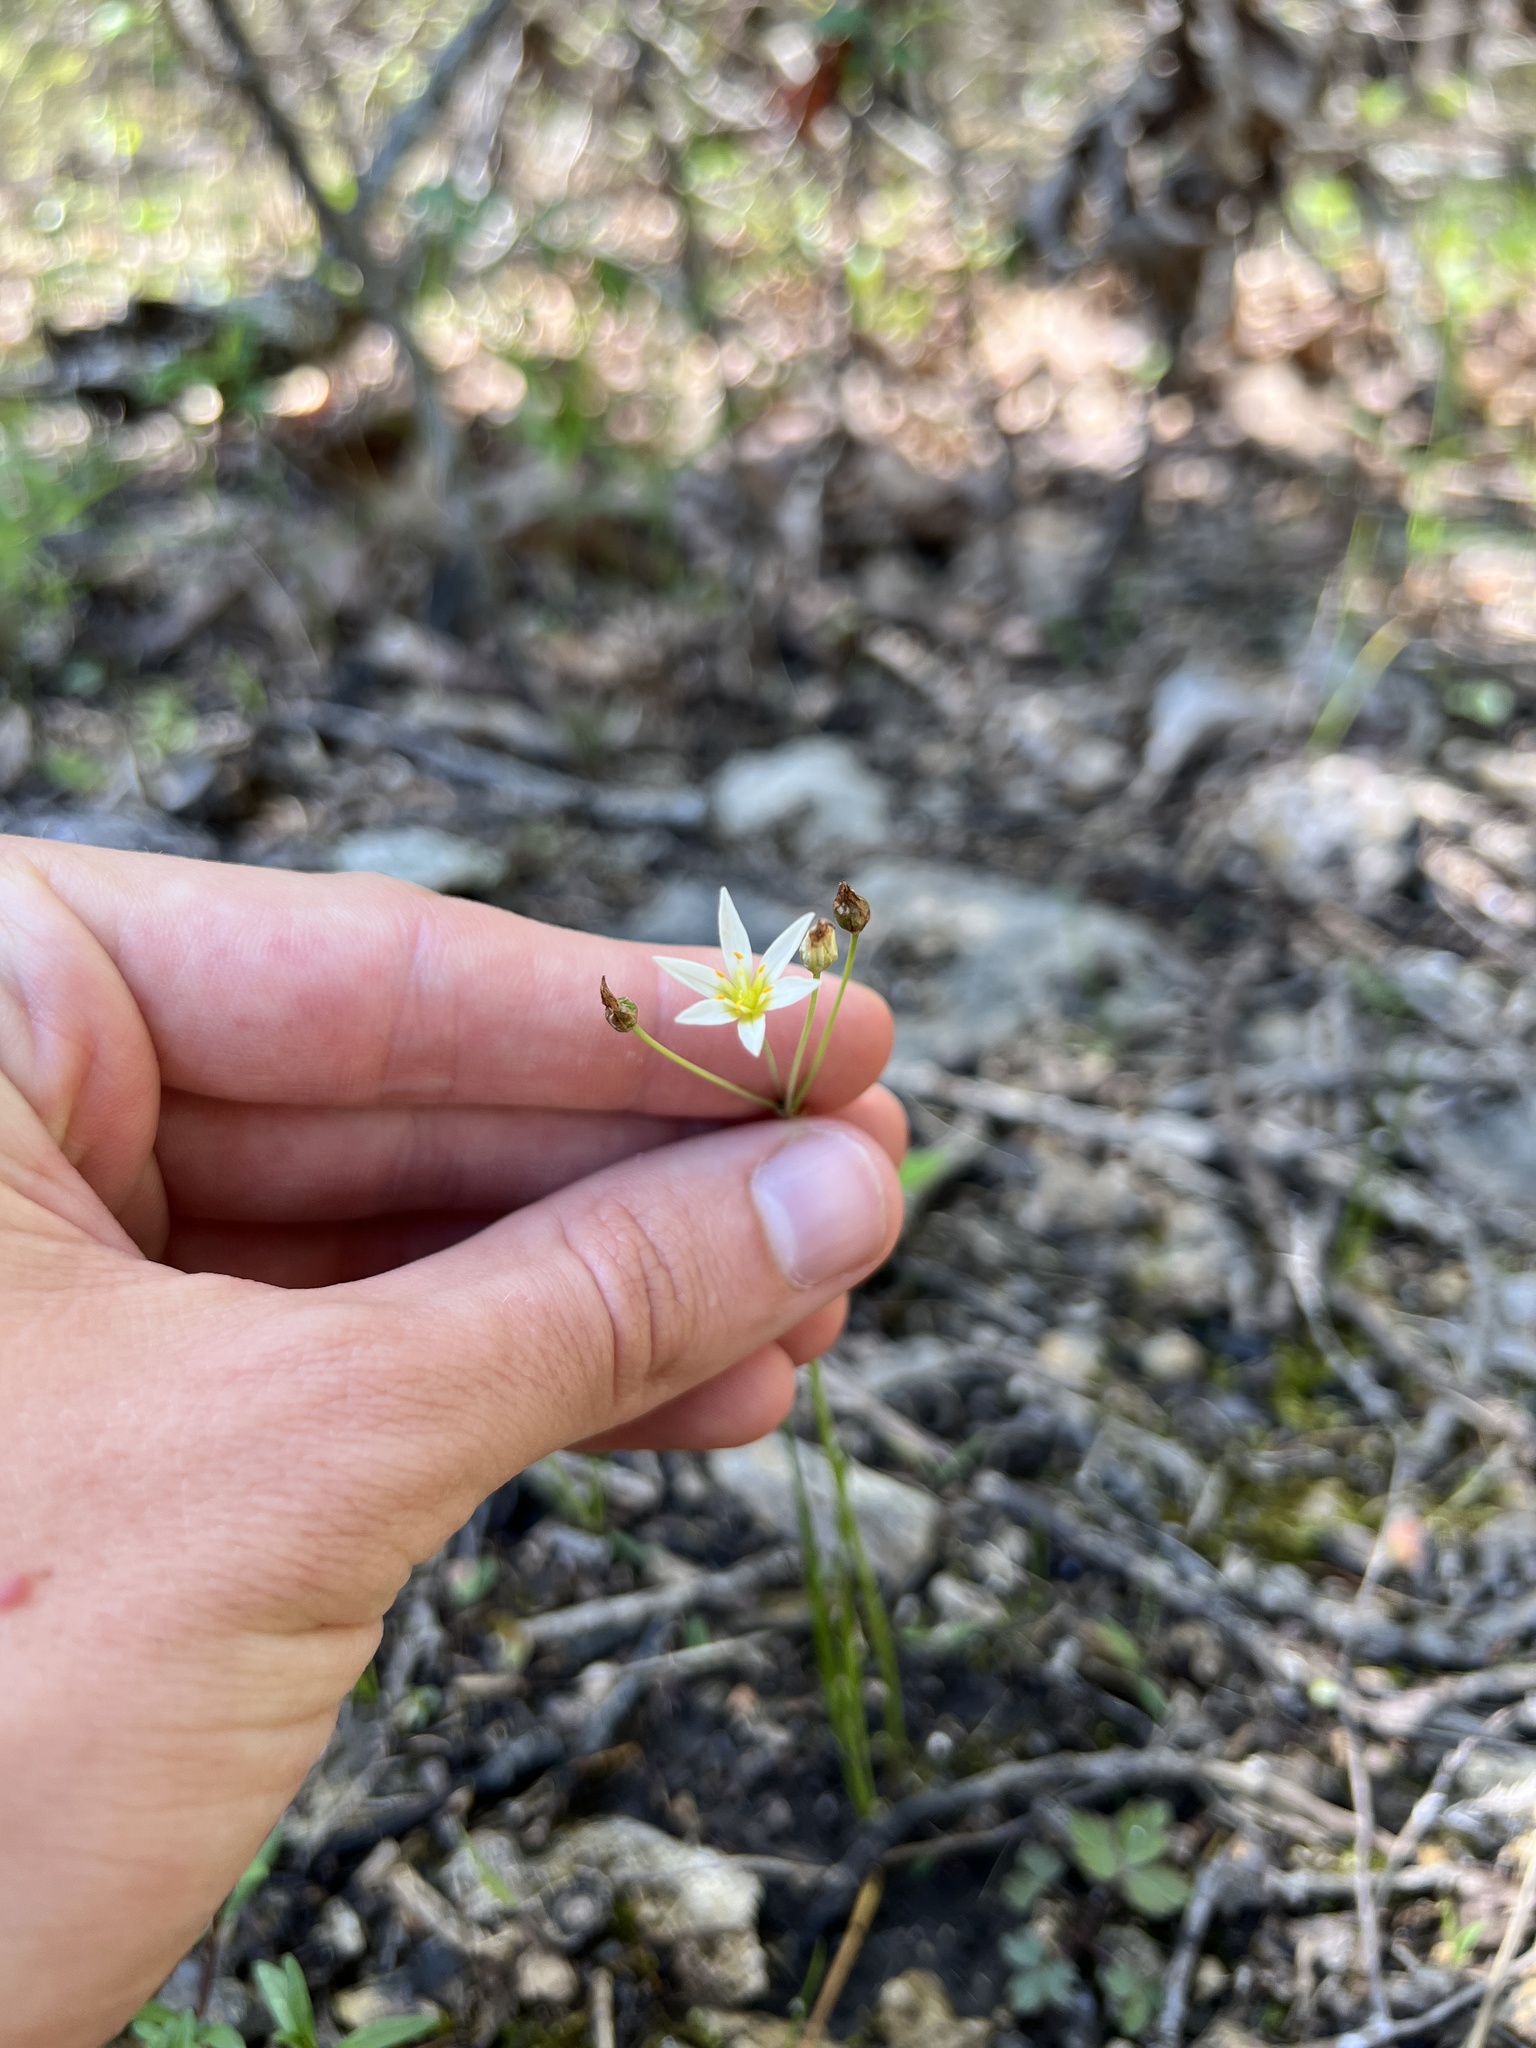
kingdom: Plantae
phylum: Tracheophyta
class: Liliopsida
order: Asparagales
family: Amaryllidaceae
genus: Nothoscordum
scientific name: Nothoscordum bivalve
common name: Crow-poison
